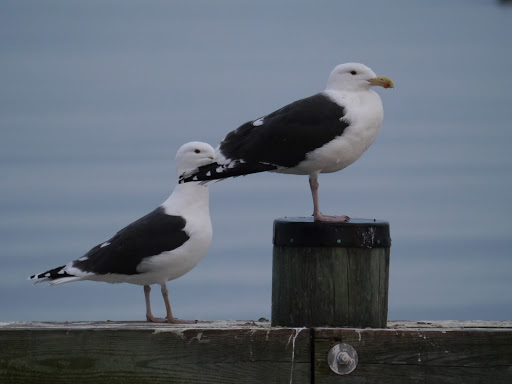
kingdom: Animalia
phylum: Chordata
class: Aves
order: Charadriiformes
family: Laridae
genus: Larus
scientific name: Larus marinus
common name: Great black-backed gull
